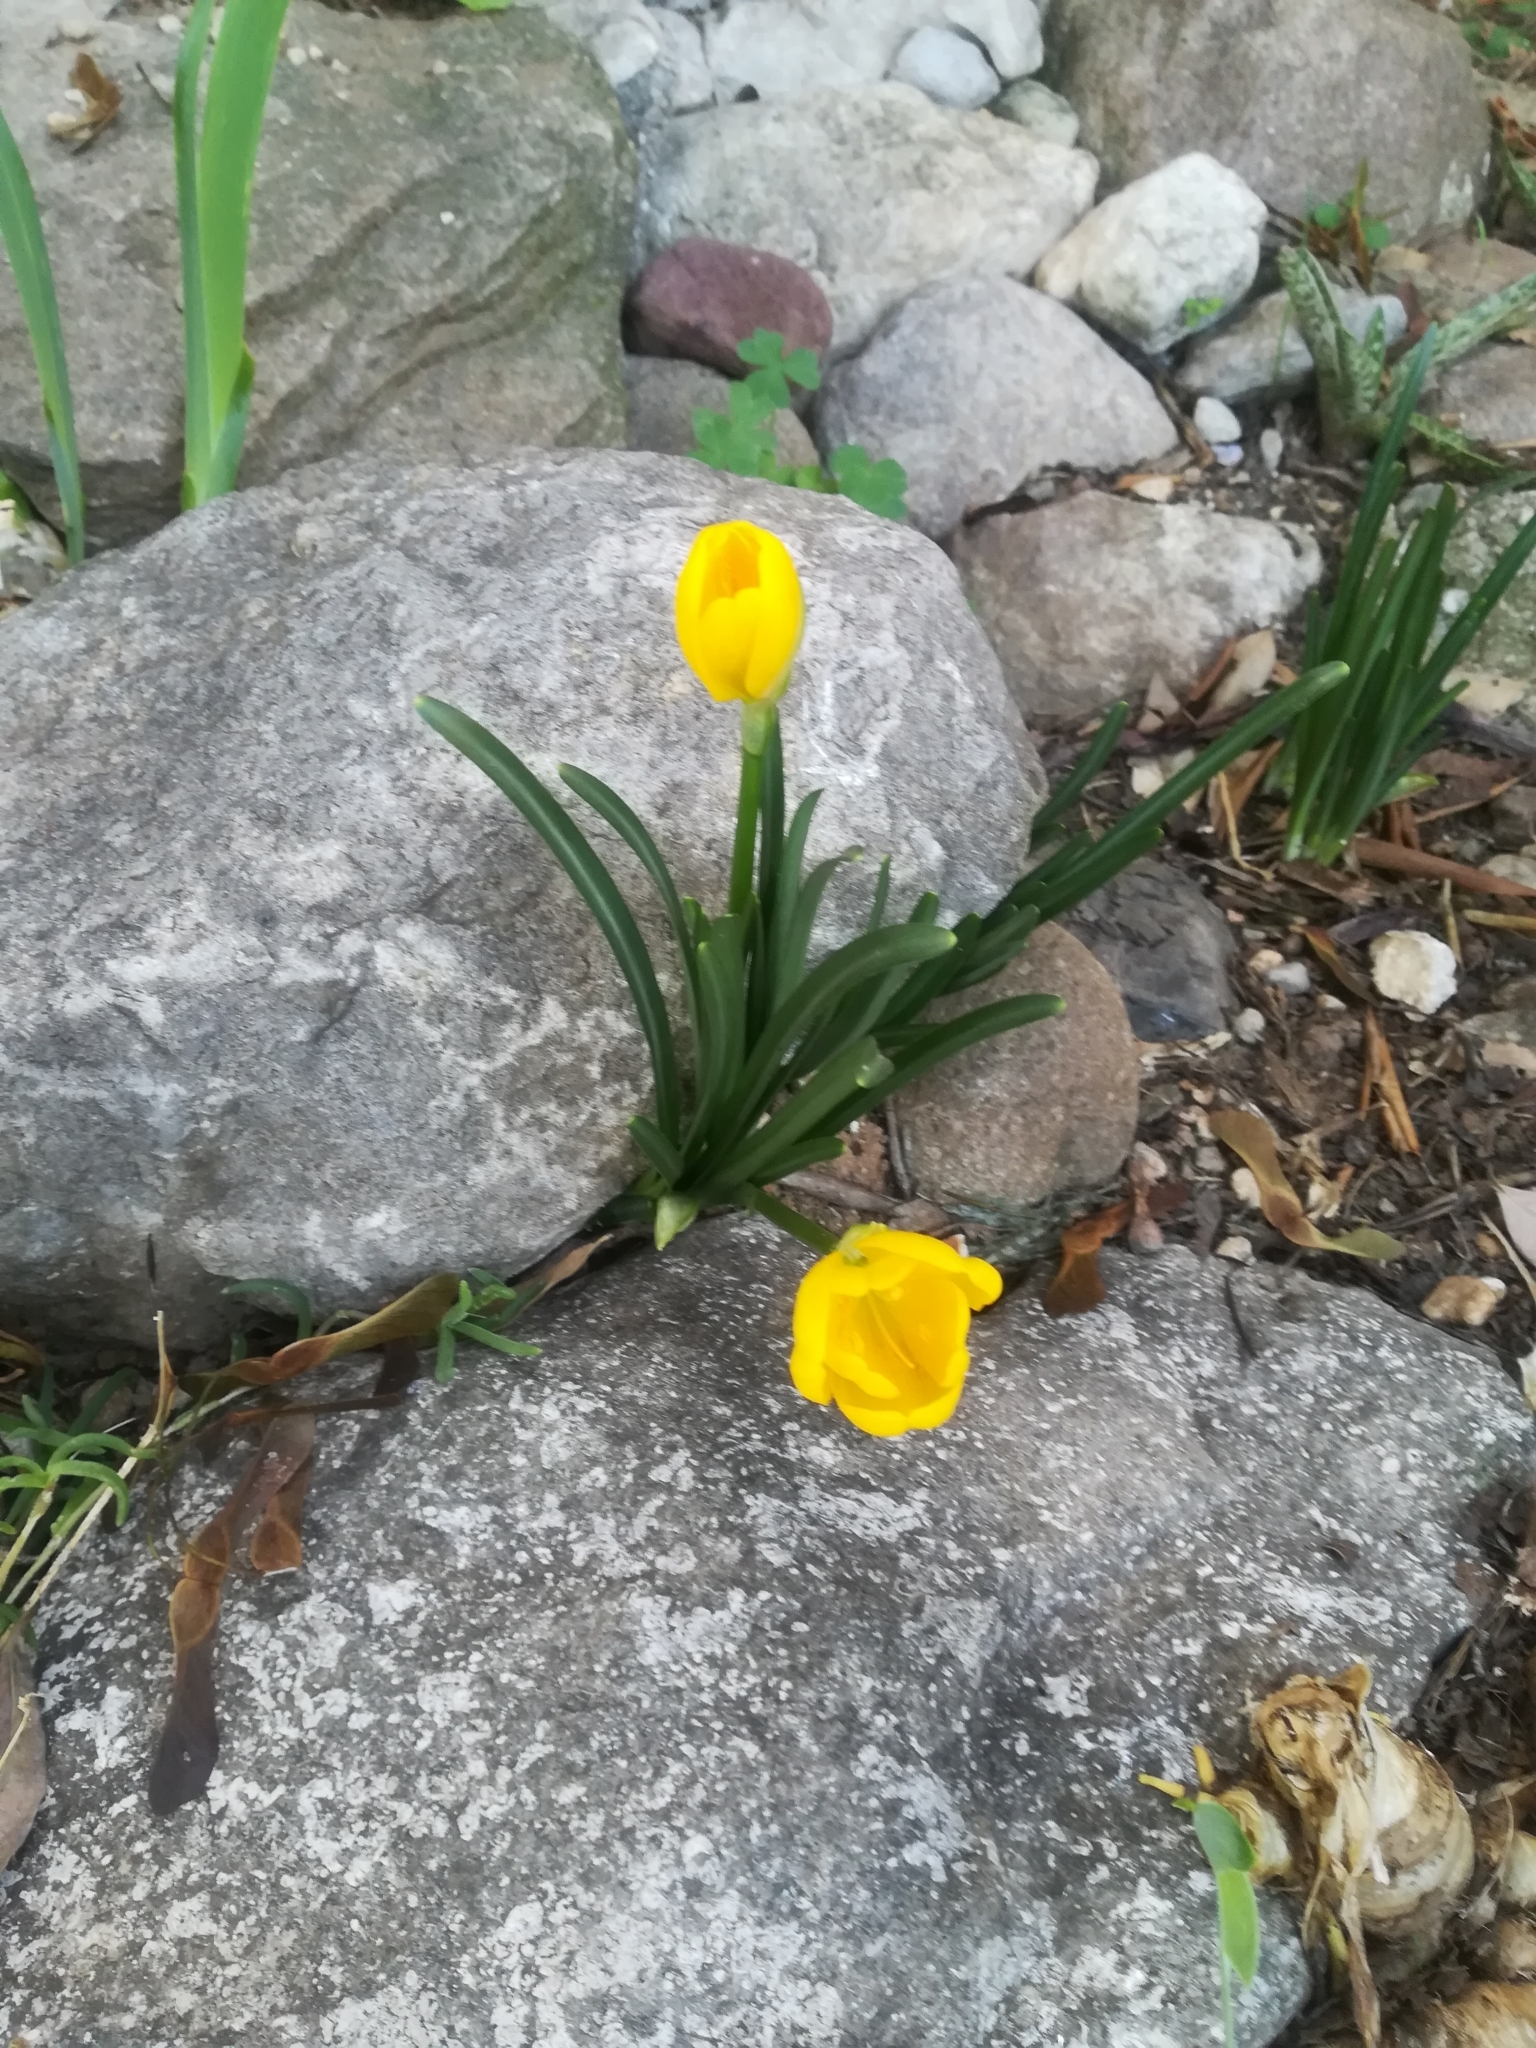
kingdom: Plantae
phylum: Tracheophyta
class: Liliopsida
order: Asparagales
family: Amaryllidaceae
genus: Sternbergia
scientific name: Sternbergia lutea
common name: Winter daffodil
